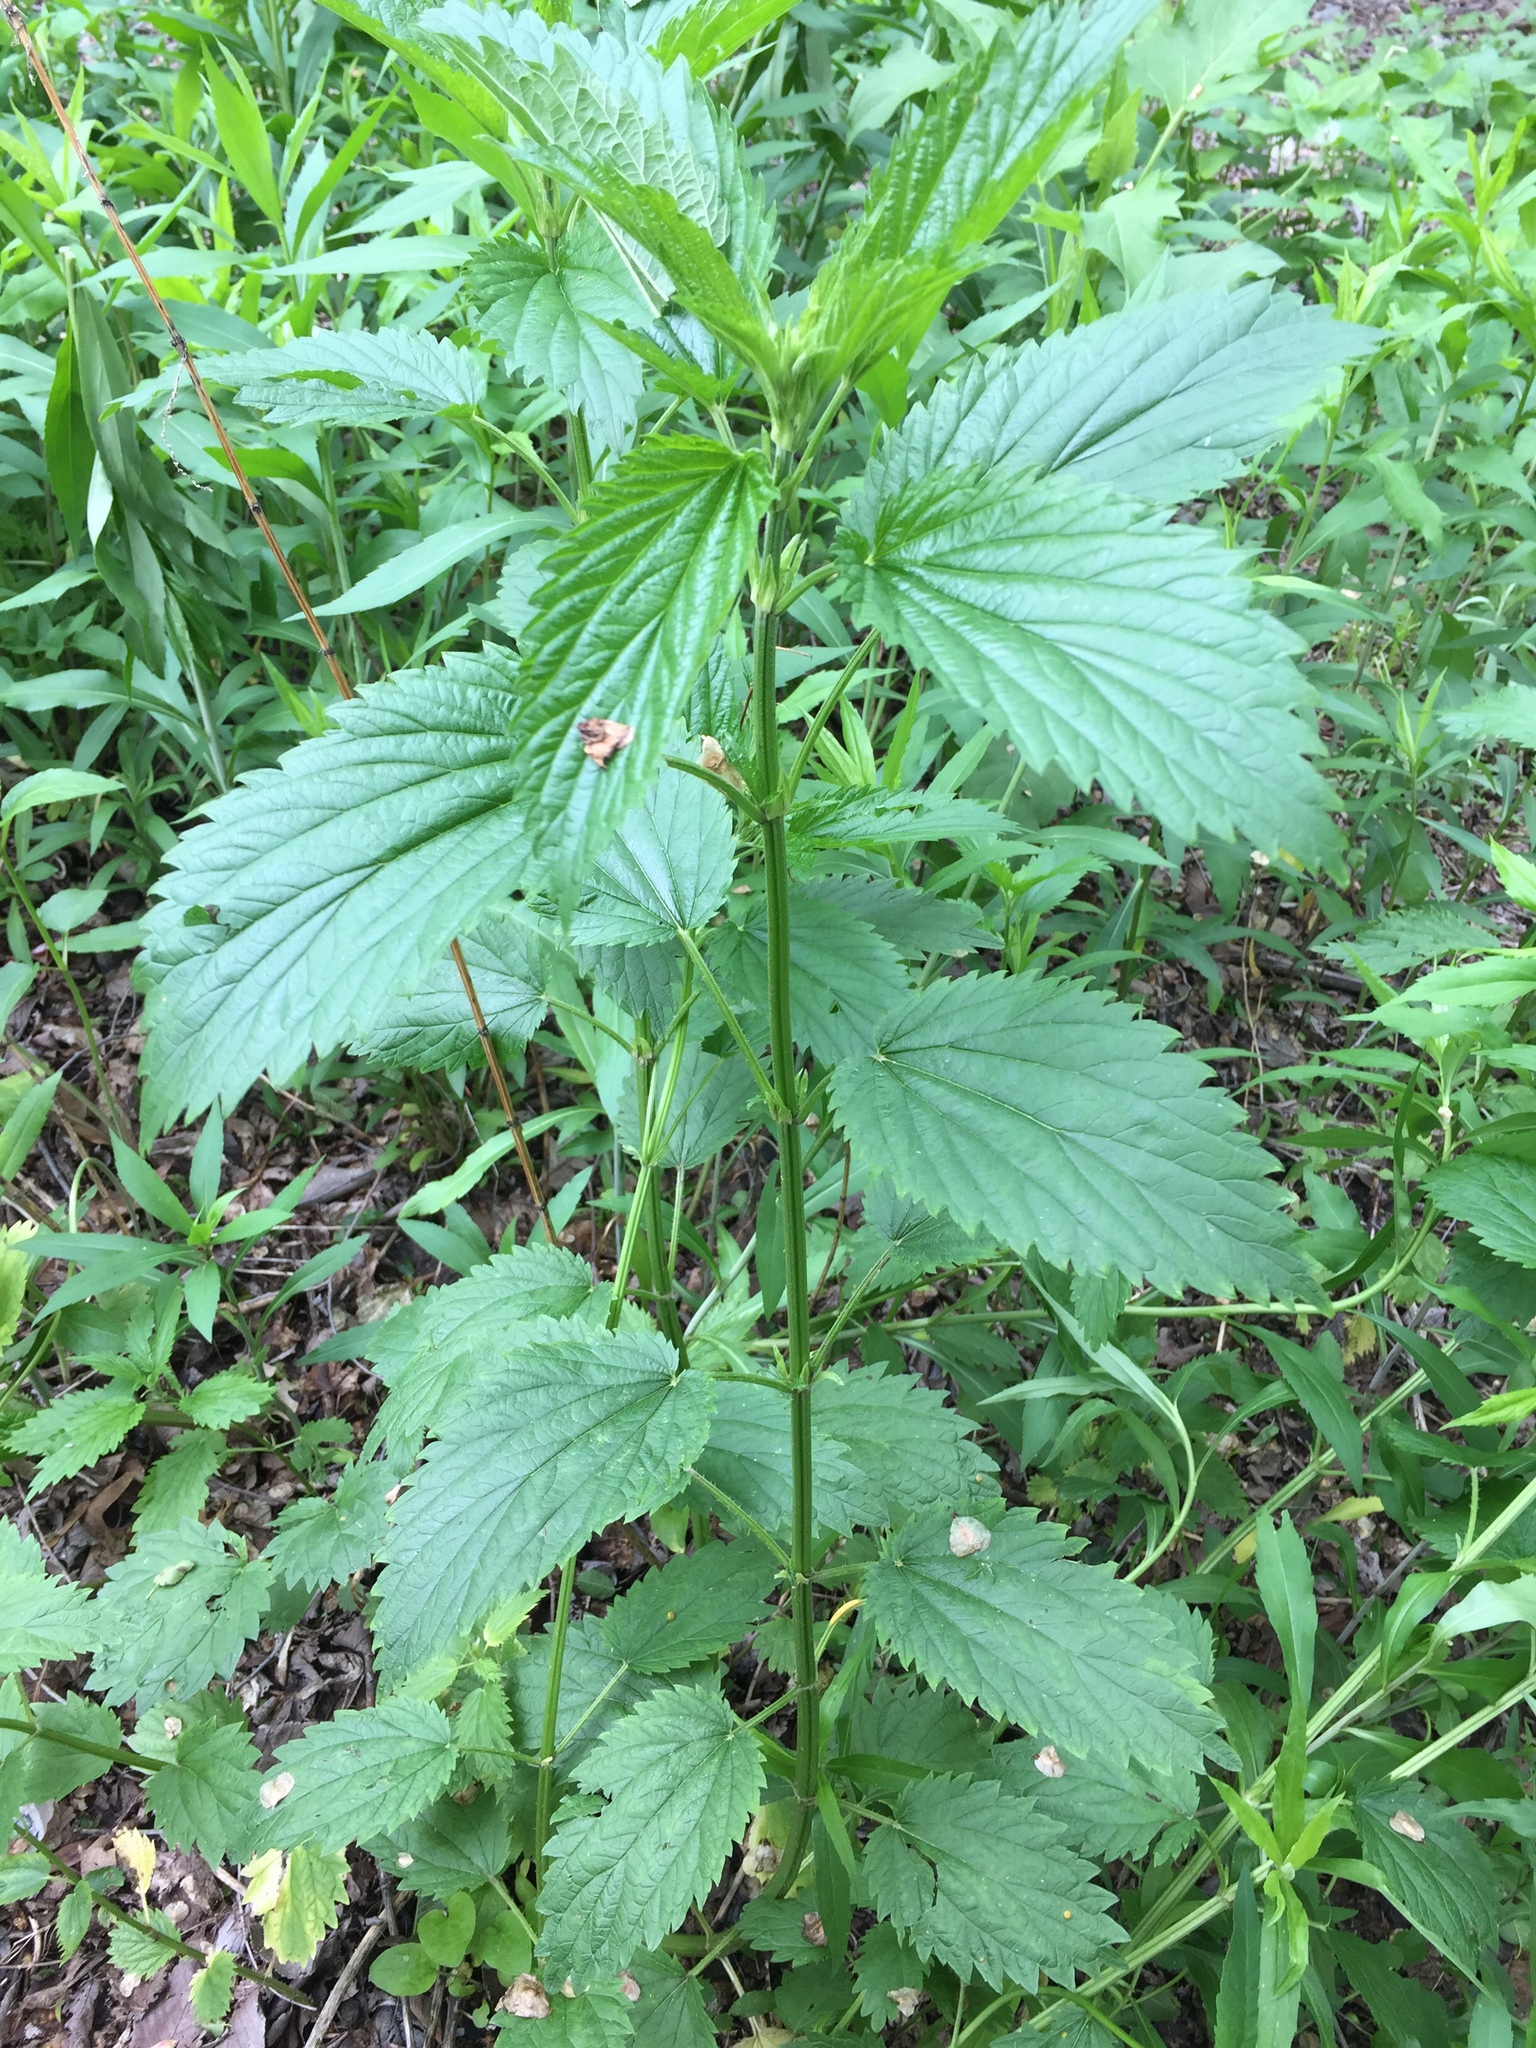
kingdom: Plantae
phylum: Tracheophyta
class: Magnoliopsida
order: Rosales
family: Urticaceae
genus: Urtica
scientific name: Urtica dioica
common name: Common nettle
